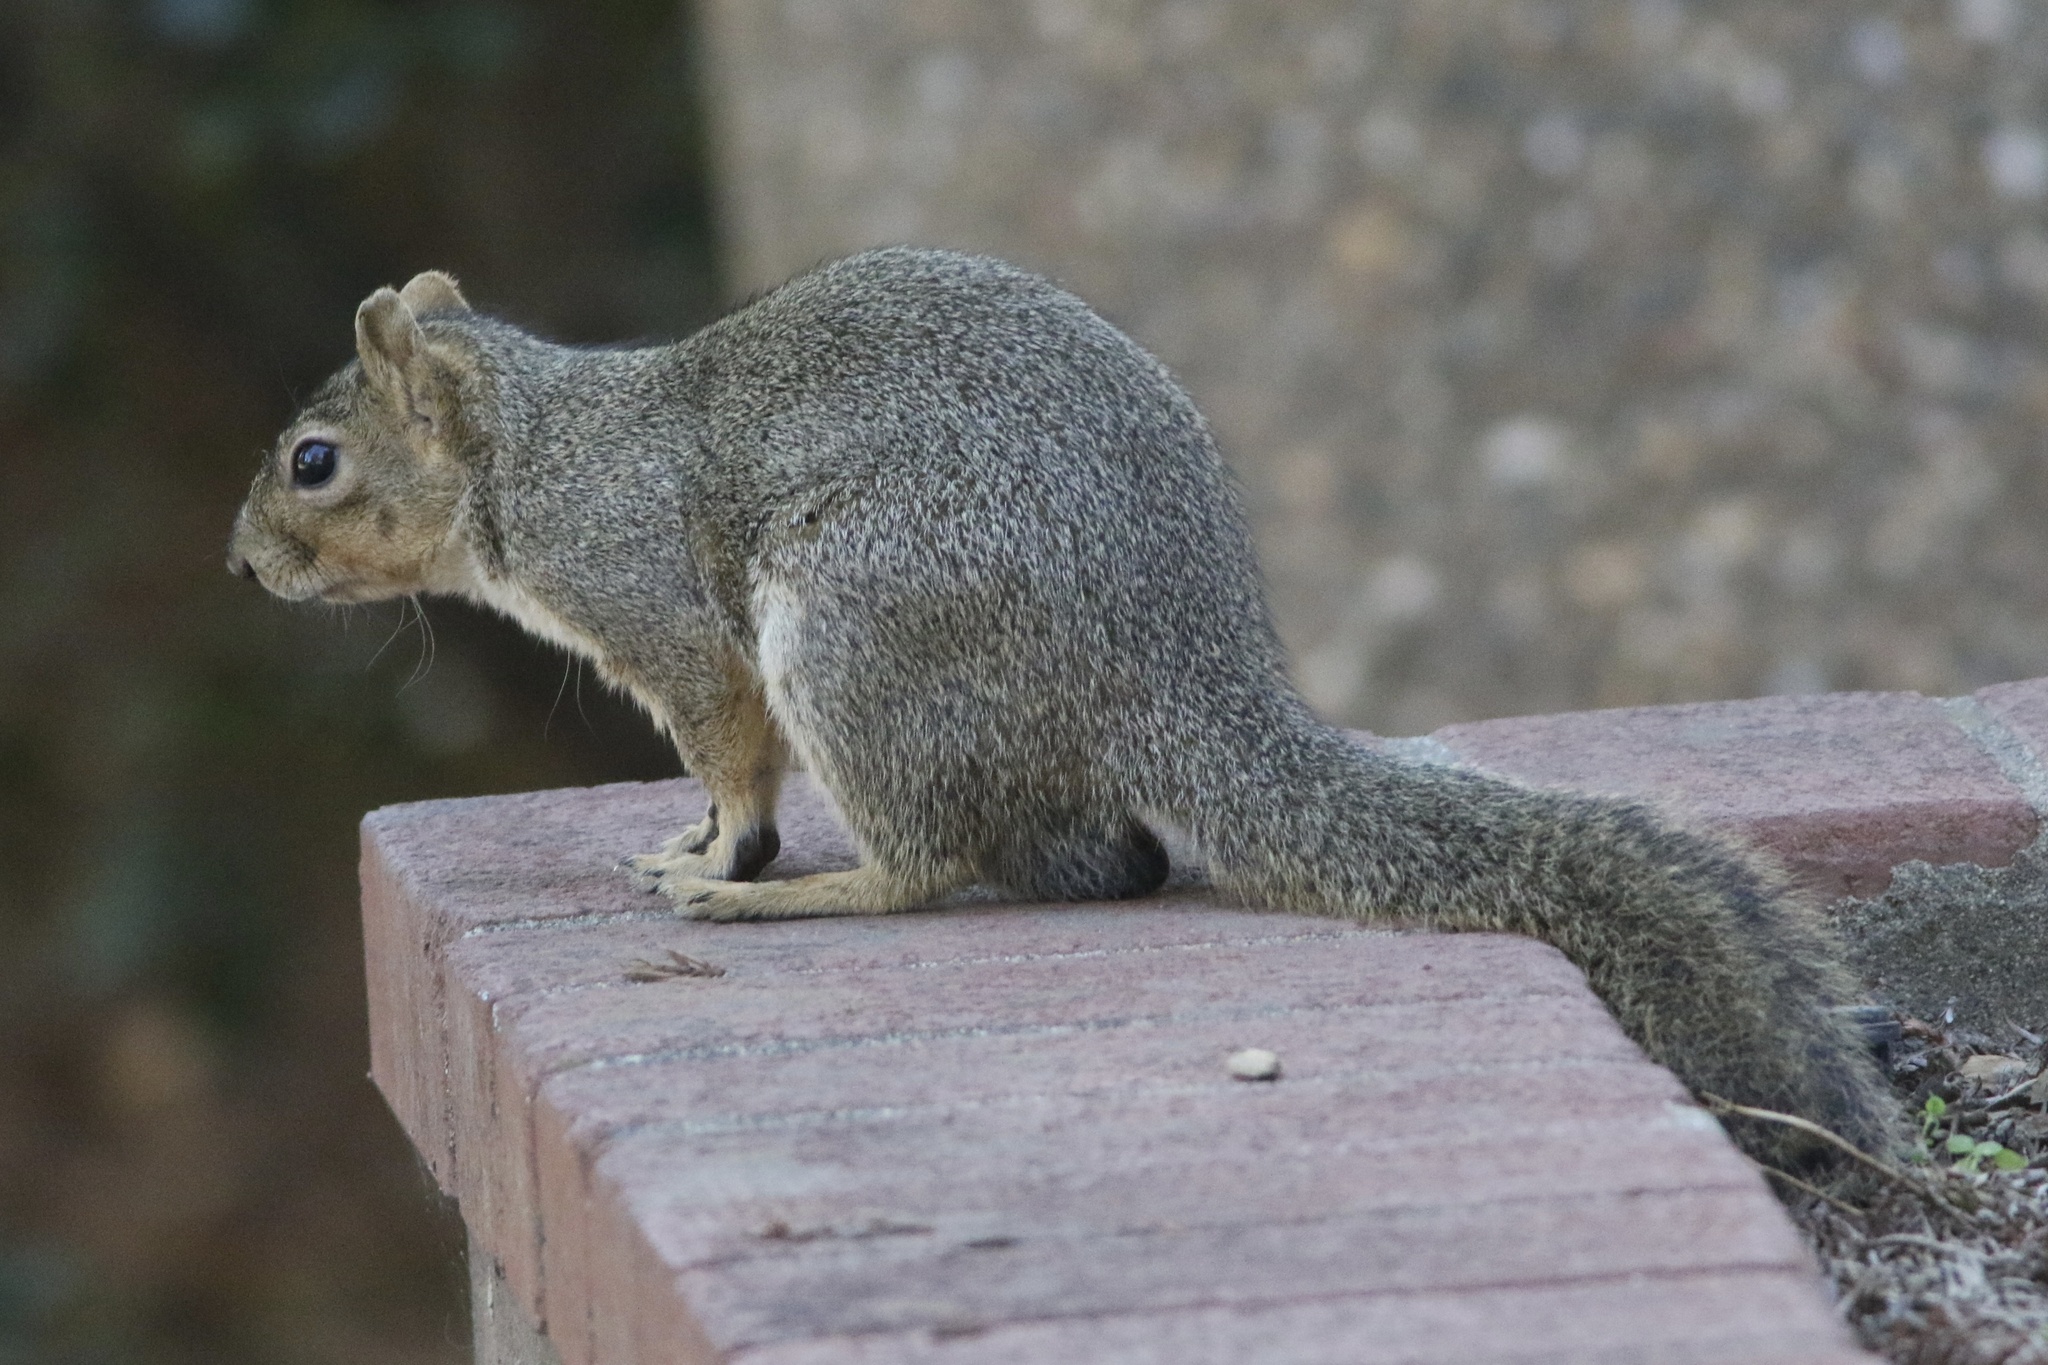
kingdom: Animalia
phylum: Chordata
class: Mammalia
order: Rodentia
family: Sciuridae
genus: Sciurus
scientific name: Sciurus niger
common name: Fox squirrel
